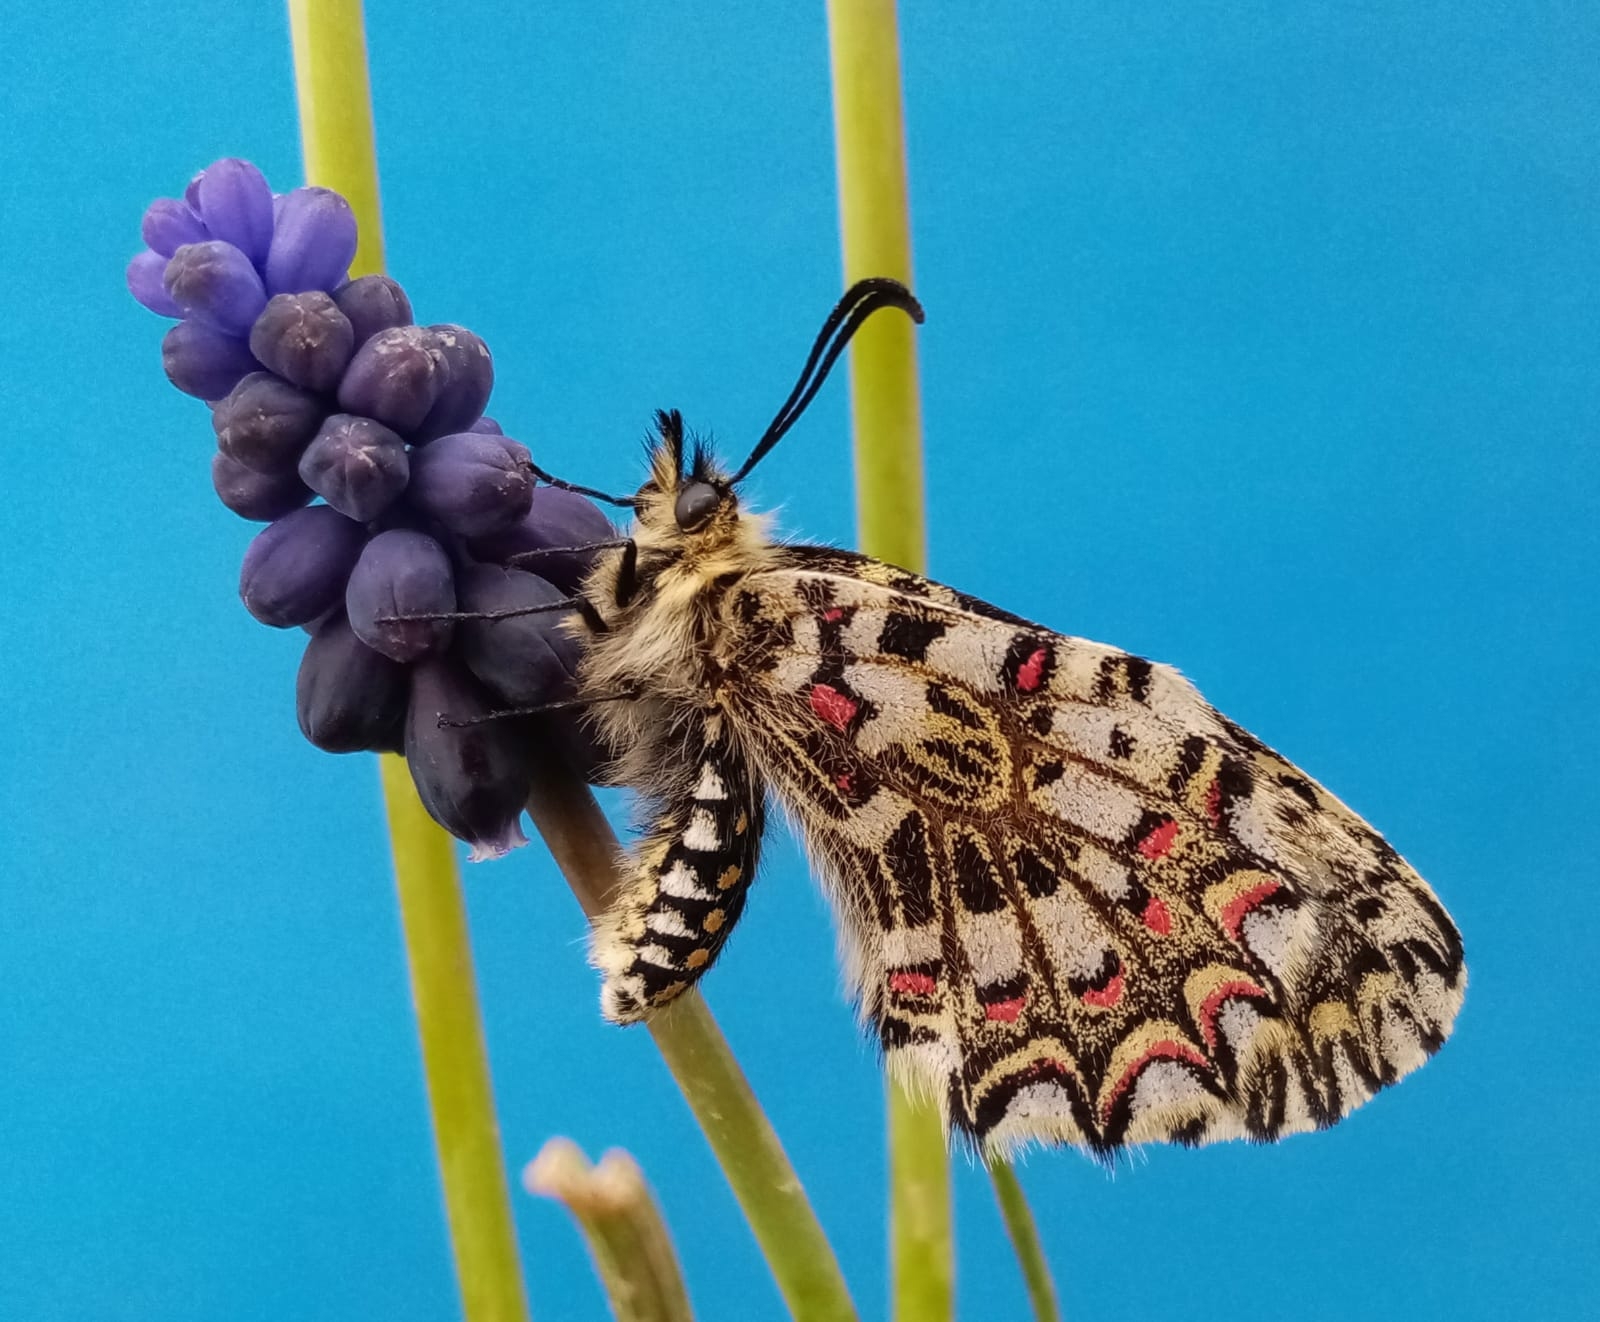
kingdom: Animalia
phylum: Arthropoda
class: Insecta
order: Lepidoptera
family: Papilionidae
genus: Zerynthia
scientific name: Zerynthia rumina
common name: Spanish festoon
